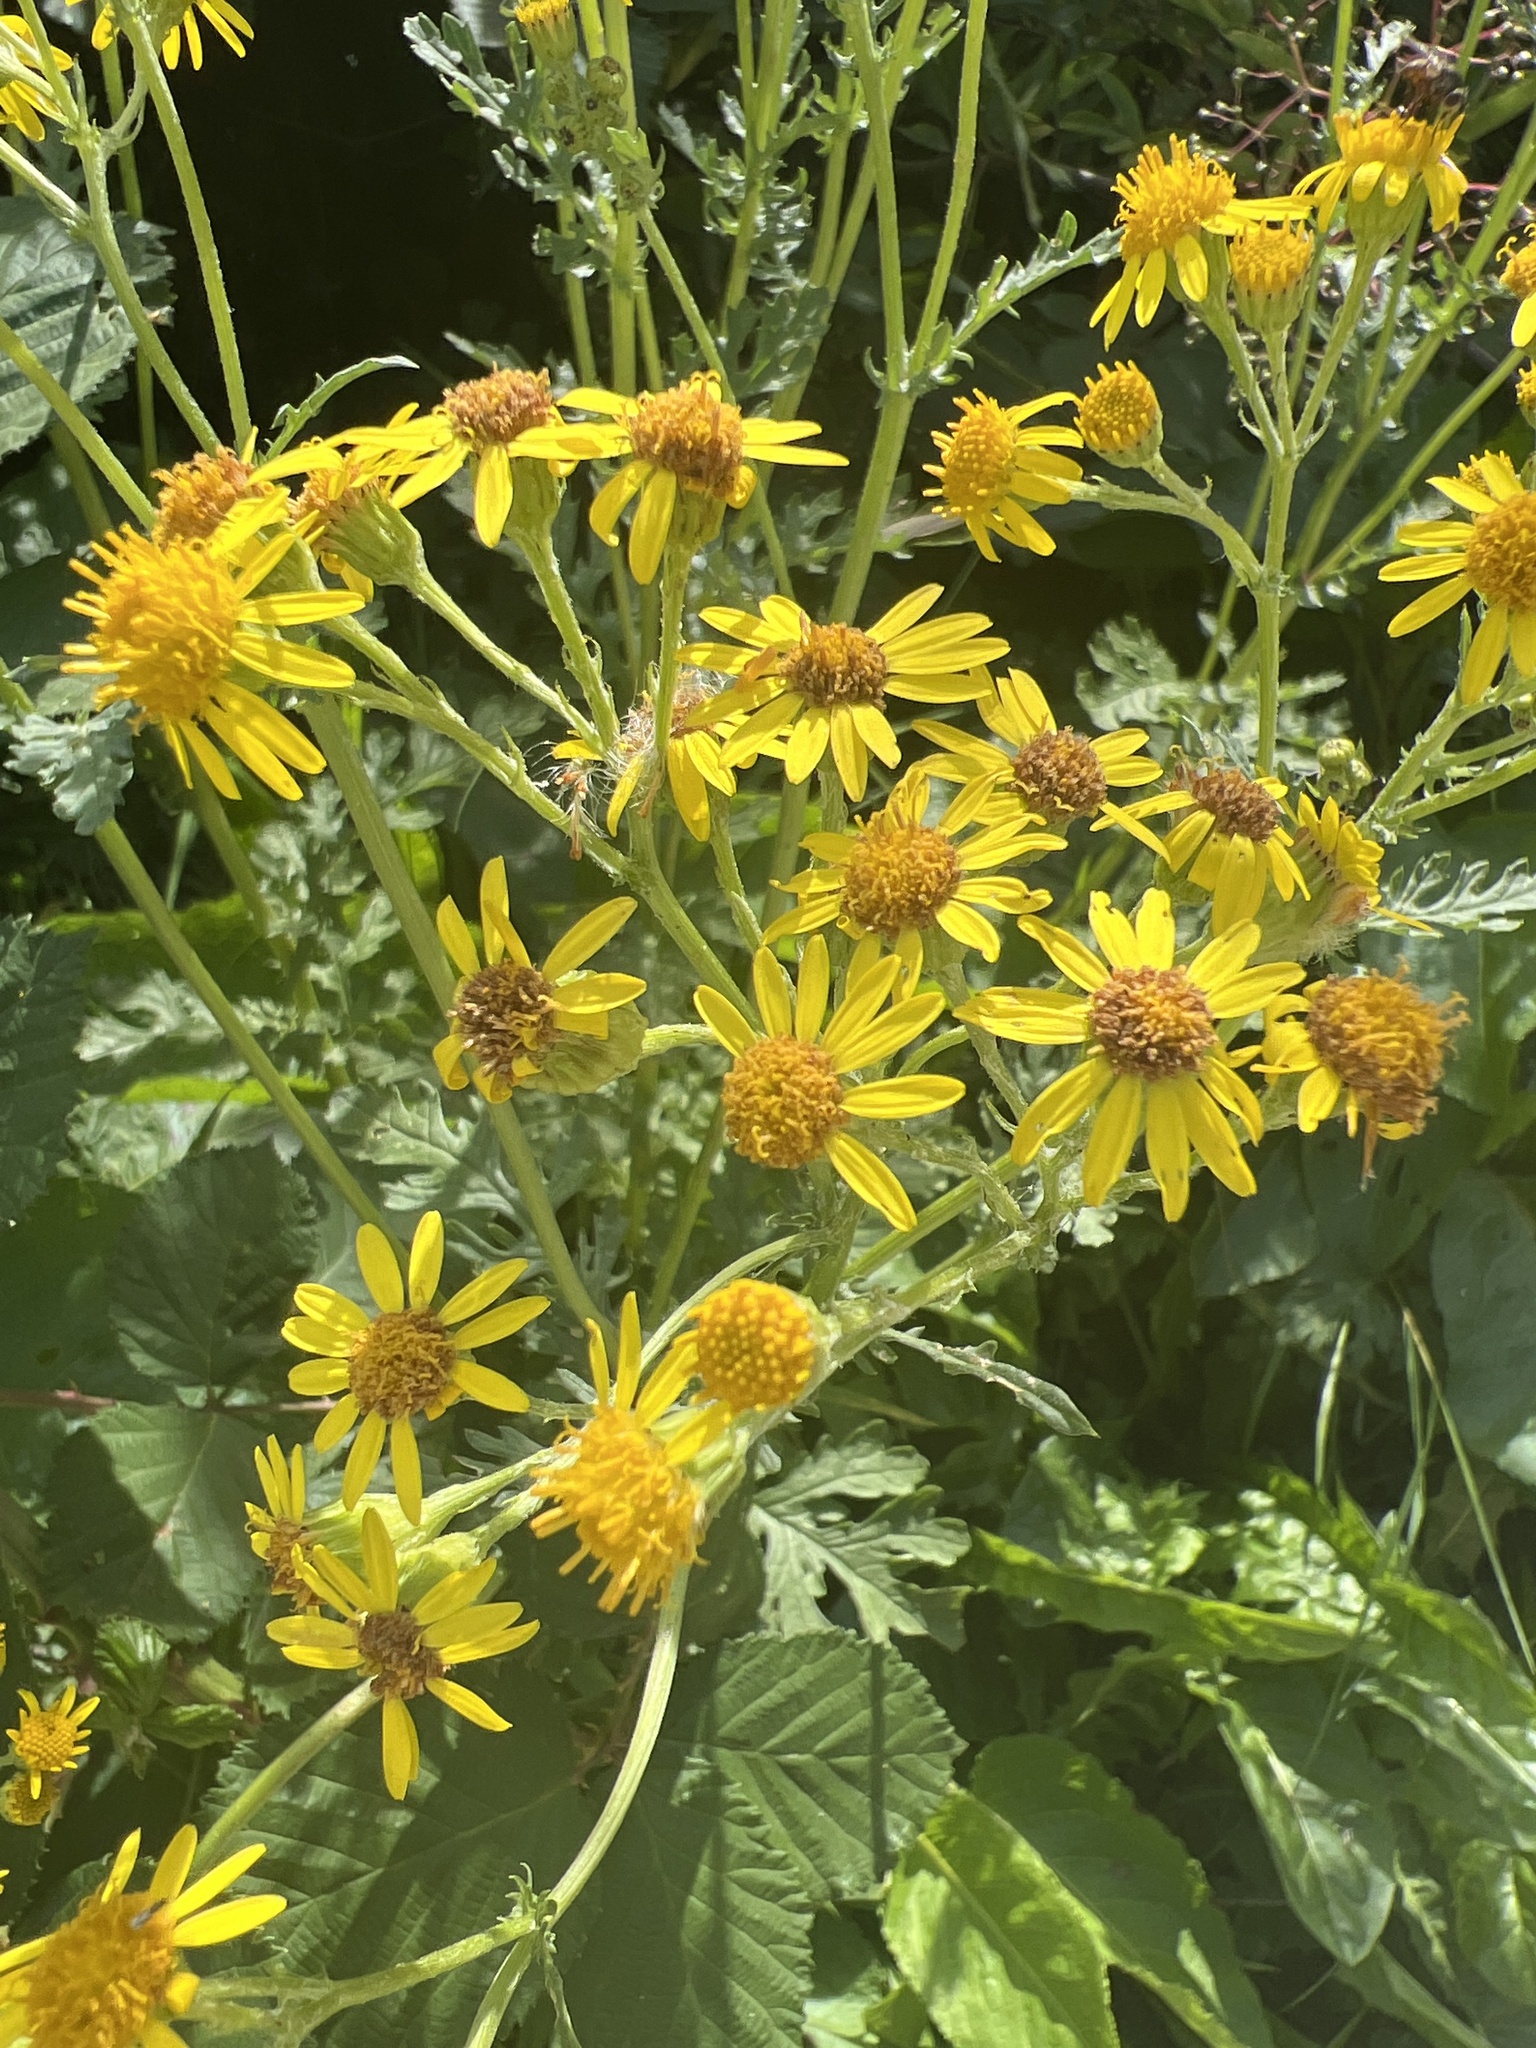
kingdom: Plantae
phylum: Tracheophyta
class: Magnoliopsida
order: Asterales
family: Asteraceae
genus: Jacobaea
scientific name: Jacobaea vulgaris
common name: Stinking willie
